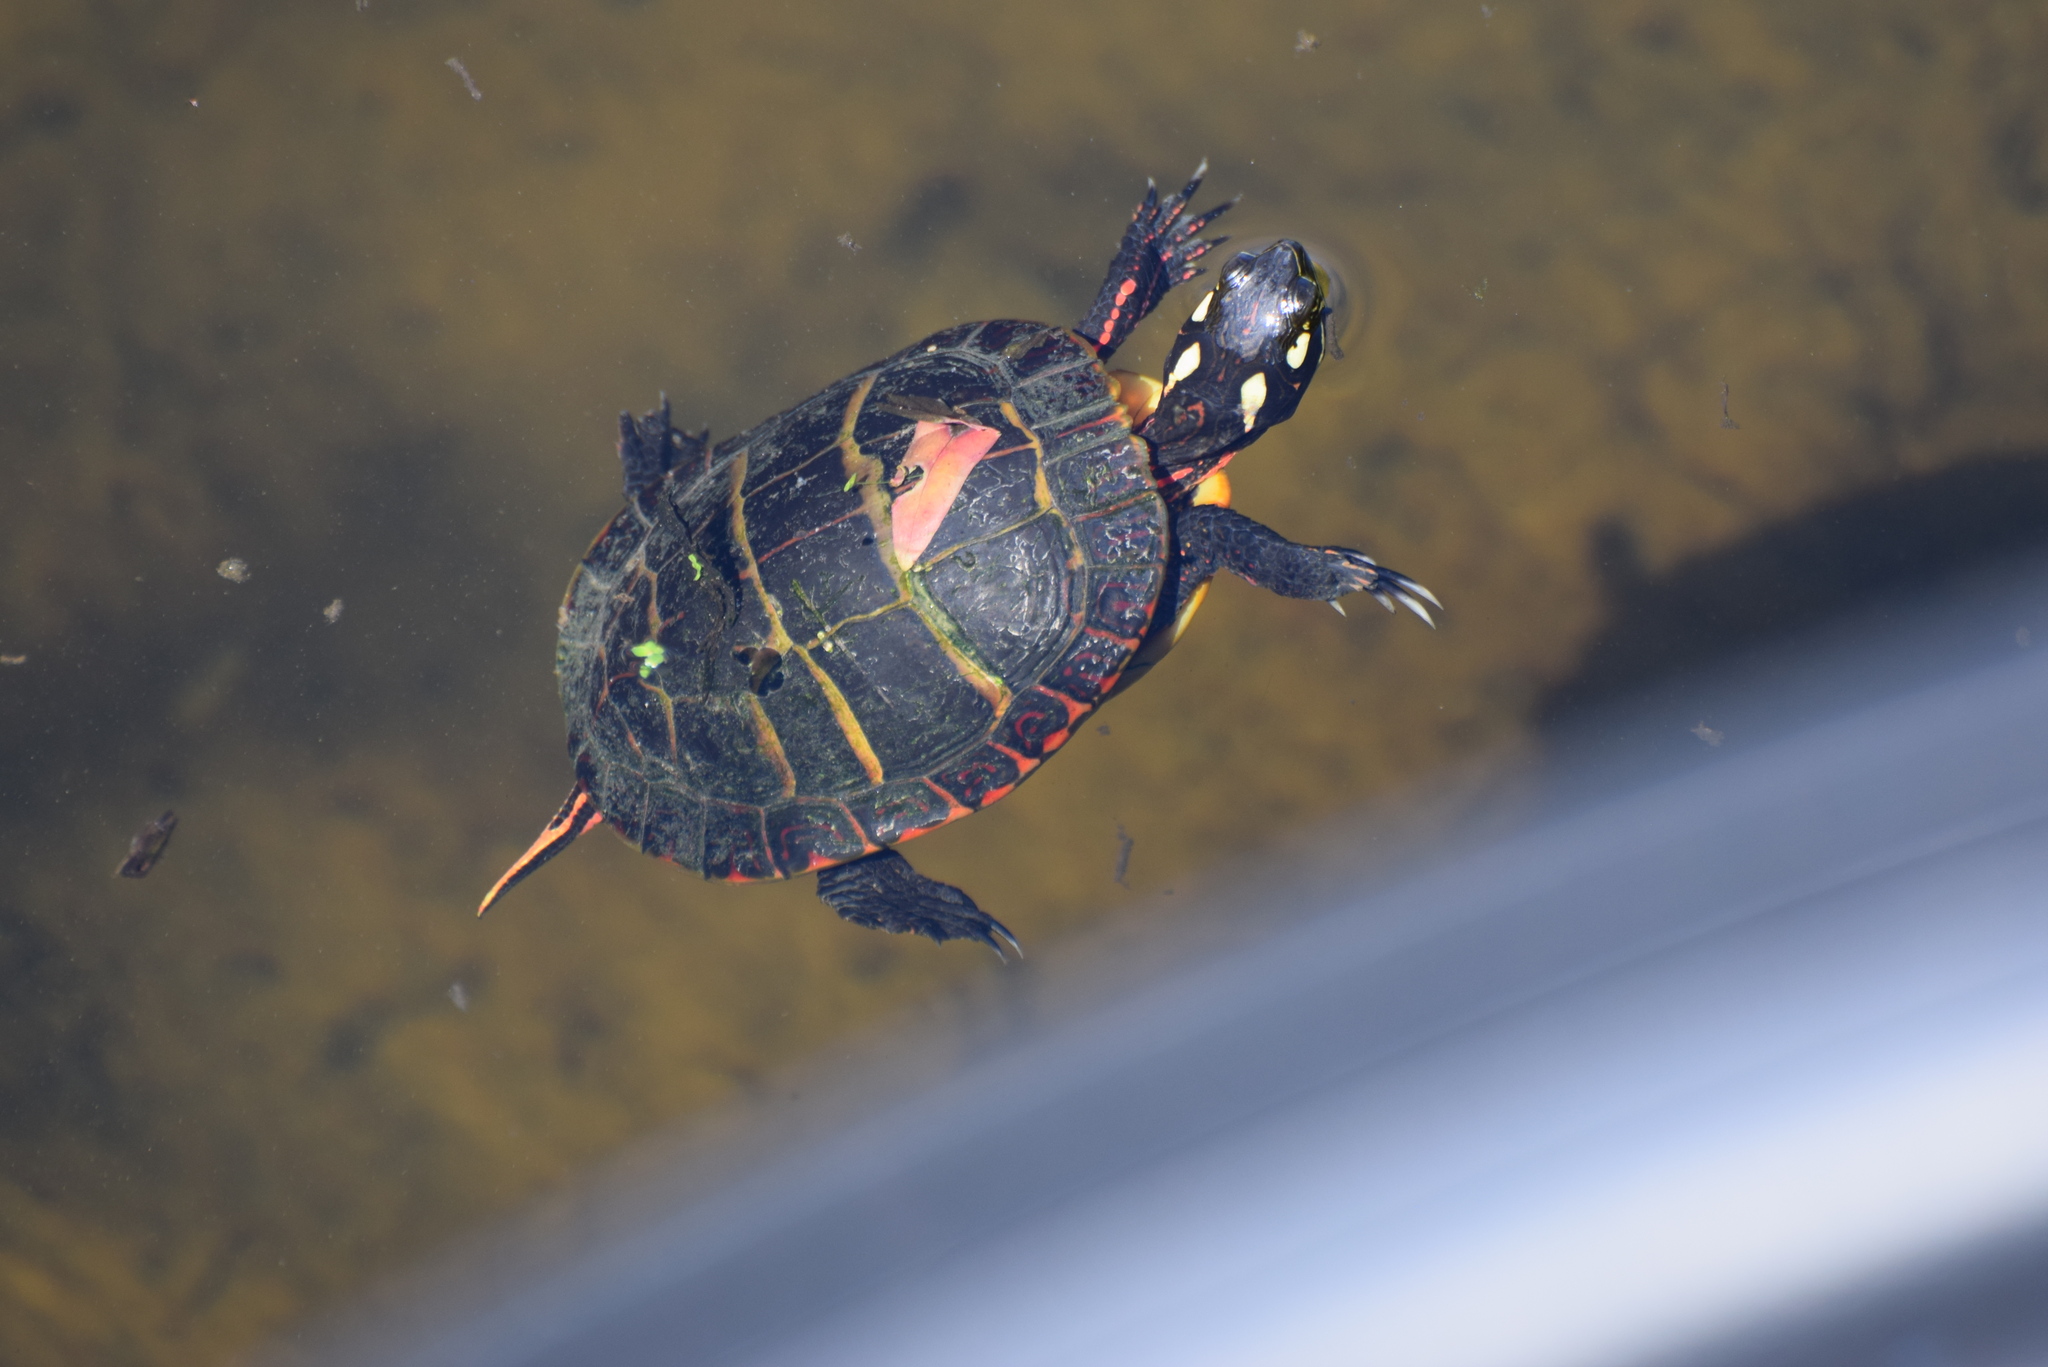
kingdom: Animalia
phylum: Chordata
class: Testudines
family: Emydidae
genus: Chrysemys
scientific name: Chrysemys picta
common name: Painted turtle
